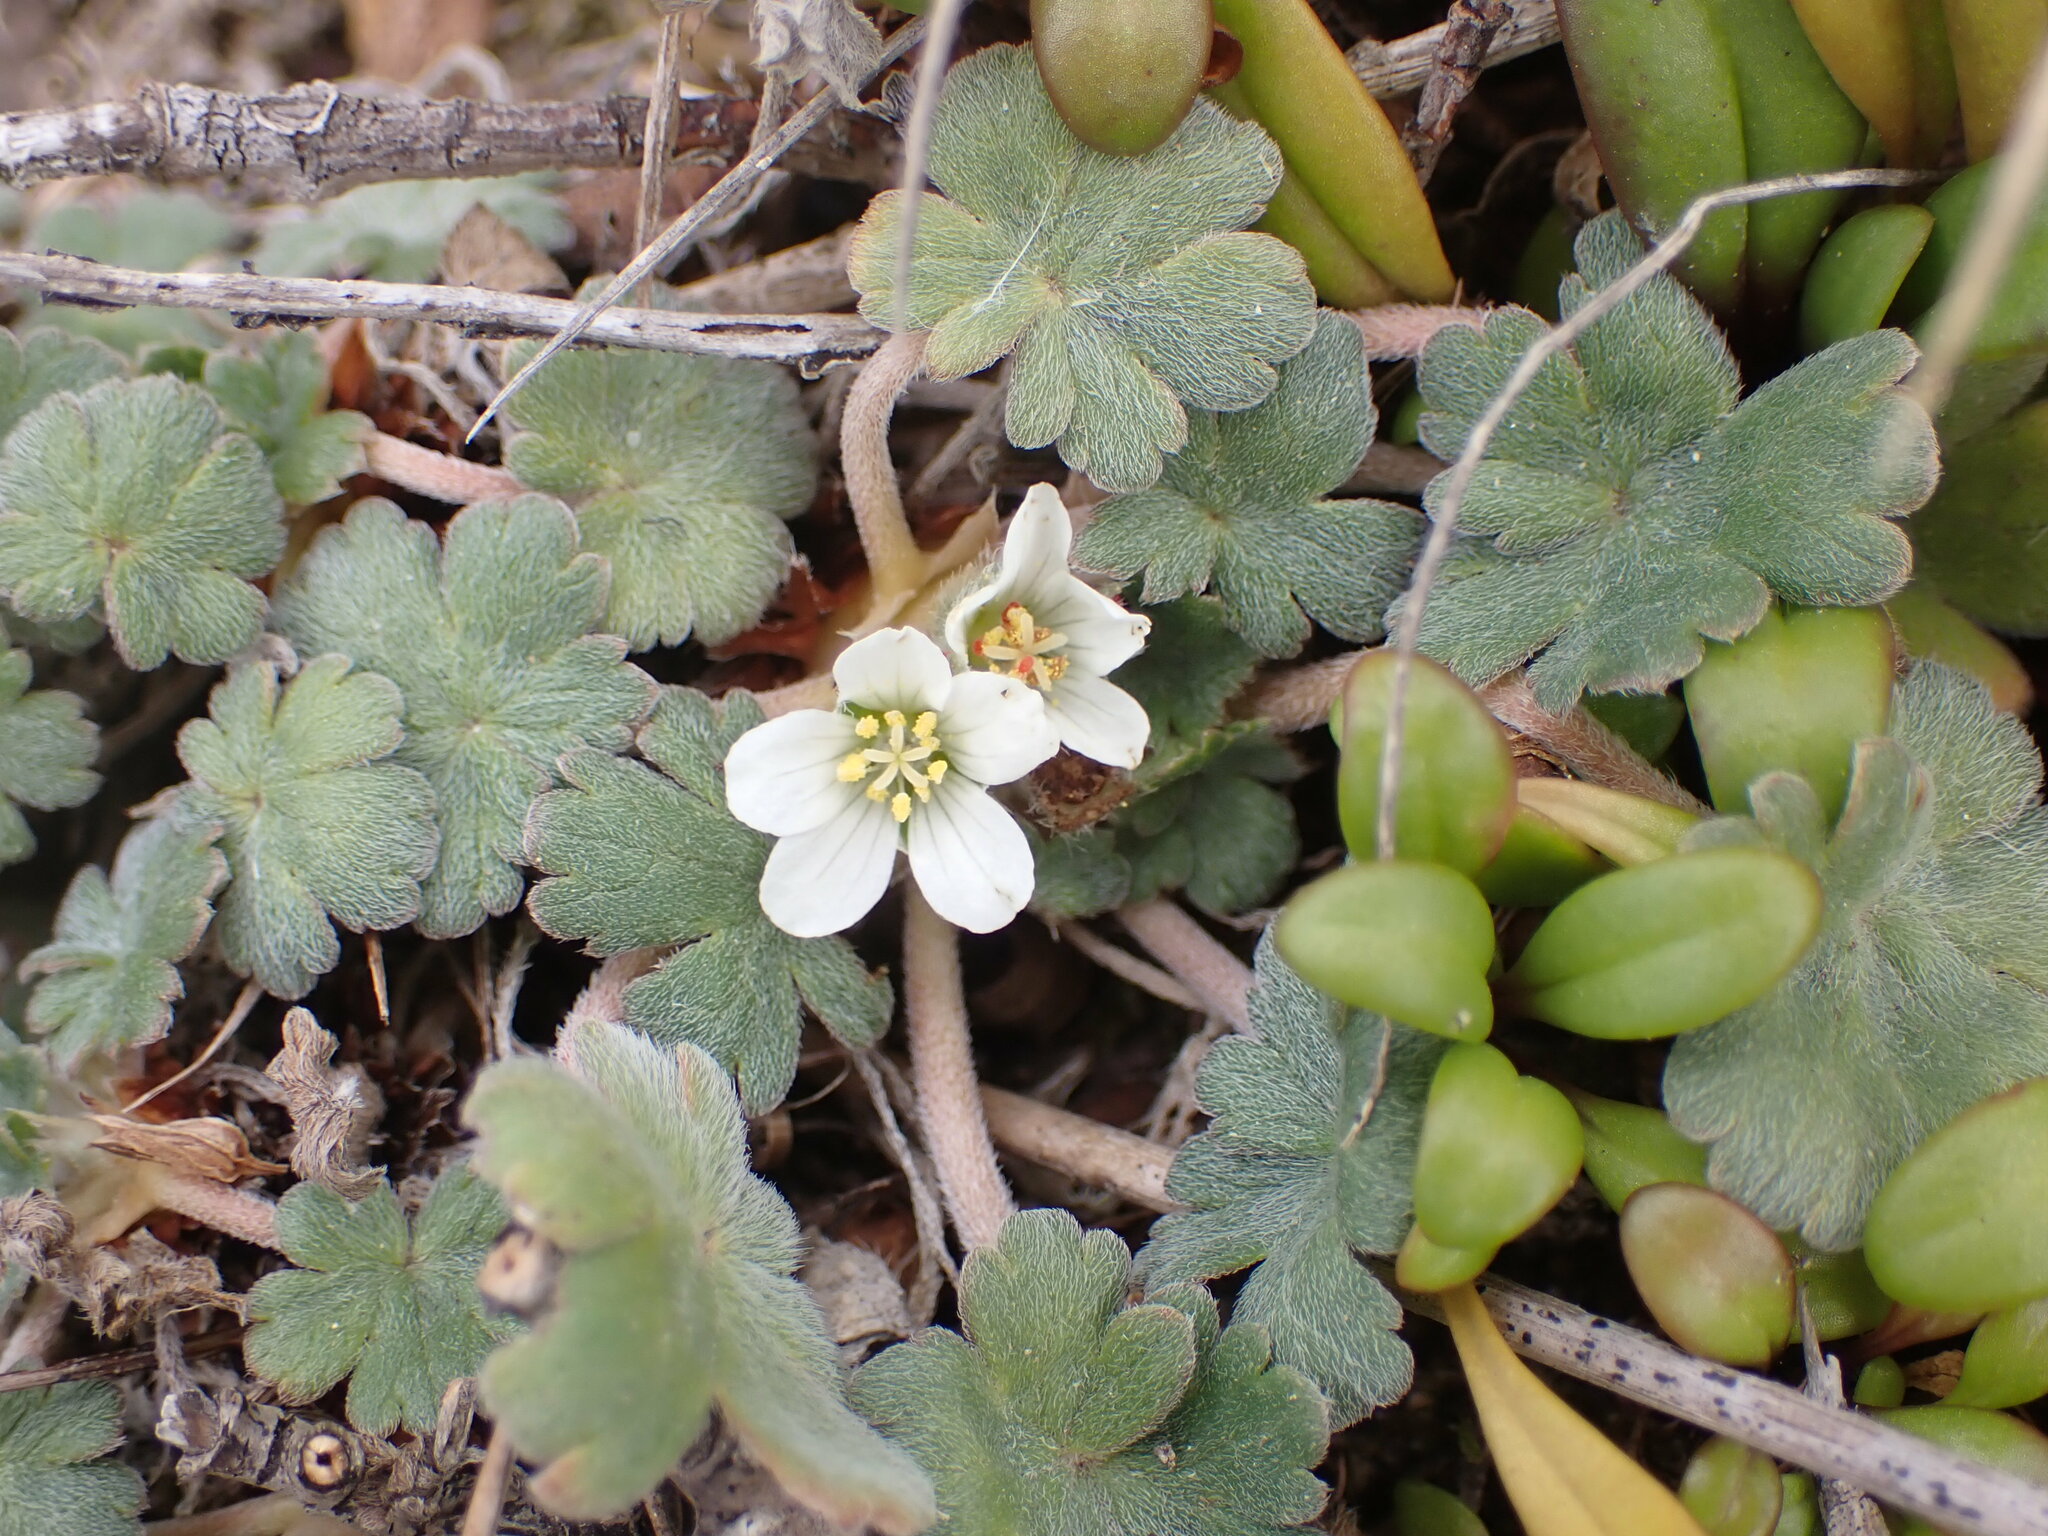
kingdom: Plantae
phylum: Tracheophyta
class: Magnoliopsida
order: Geraniales
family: Geraniaceae
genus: Geranium
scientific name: Geranium brevicaule
